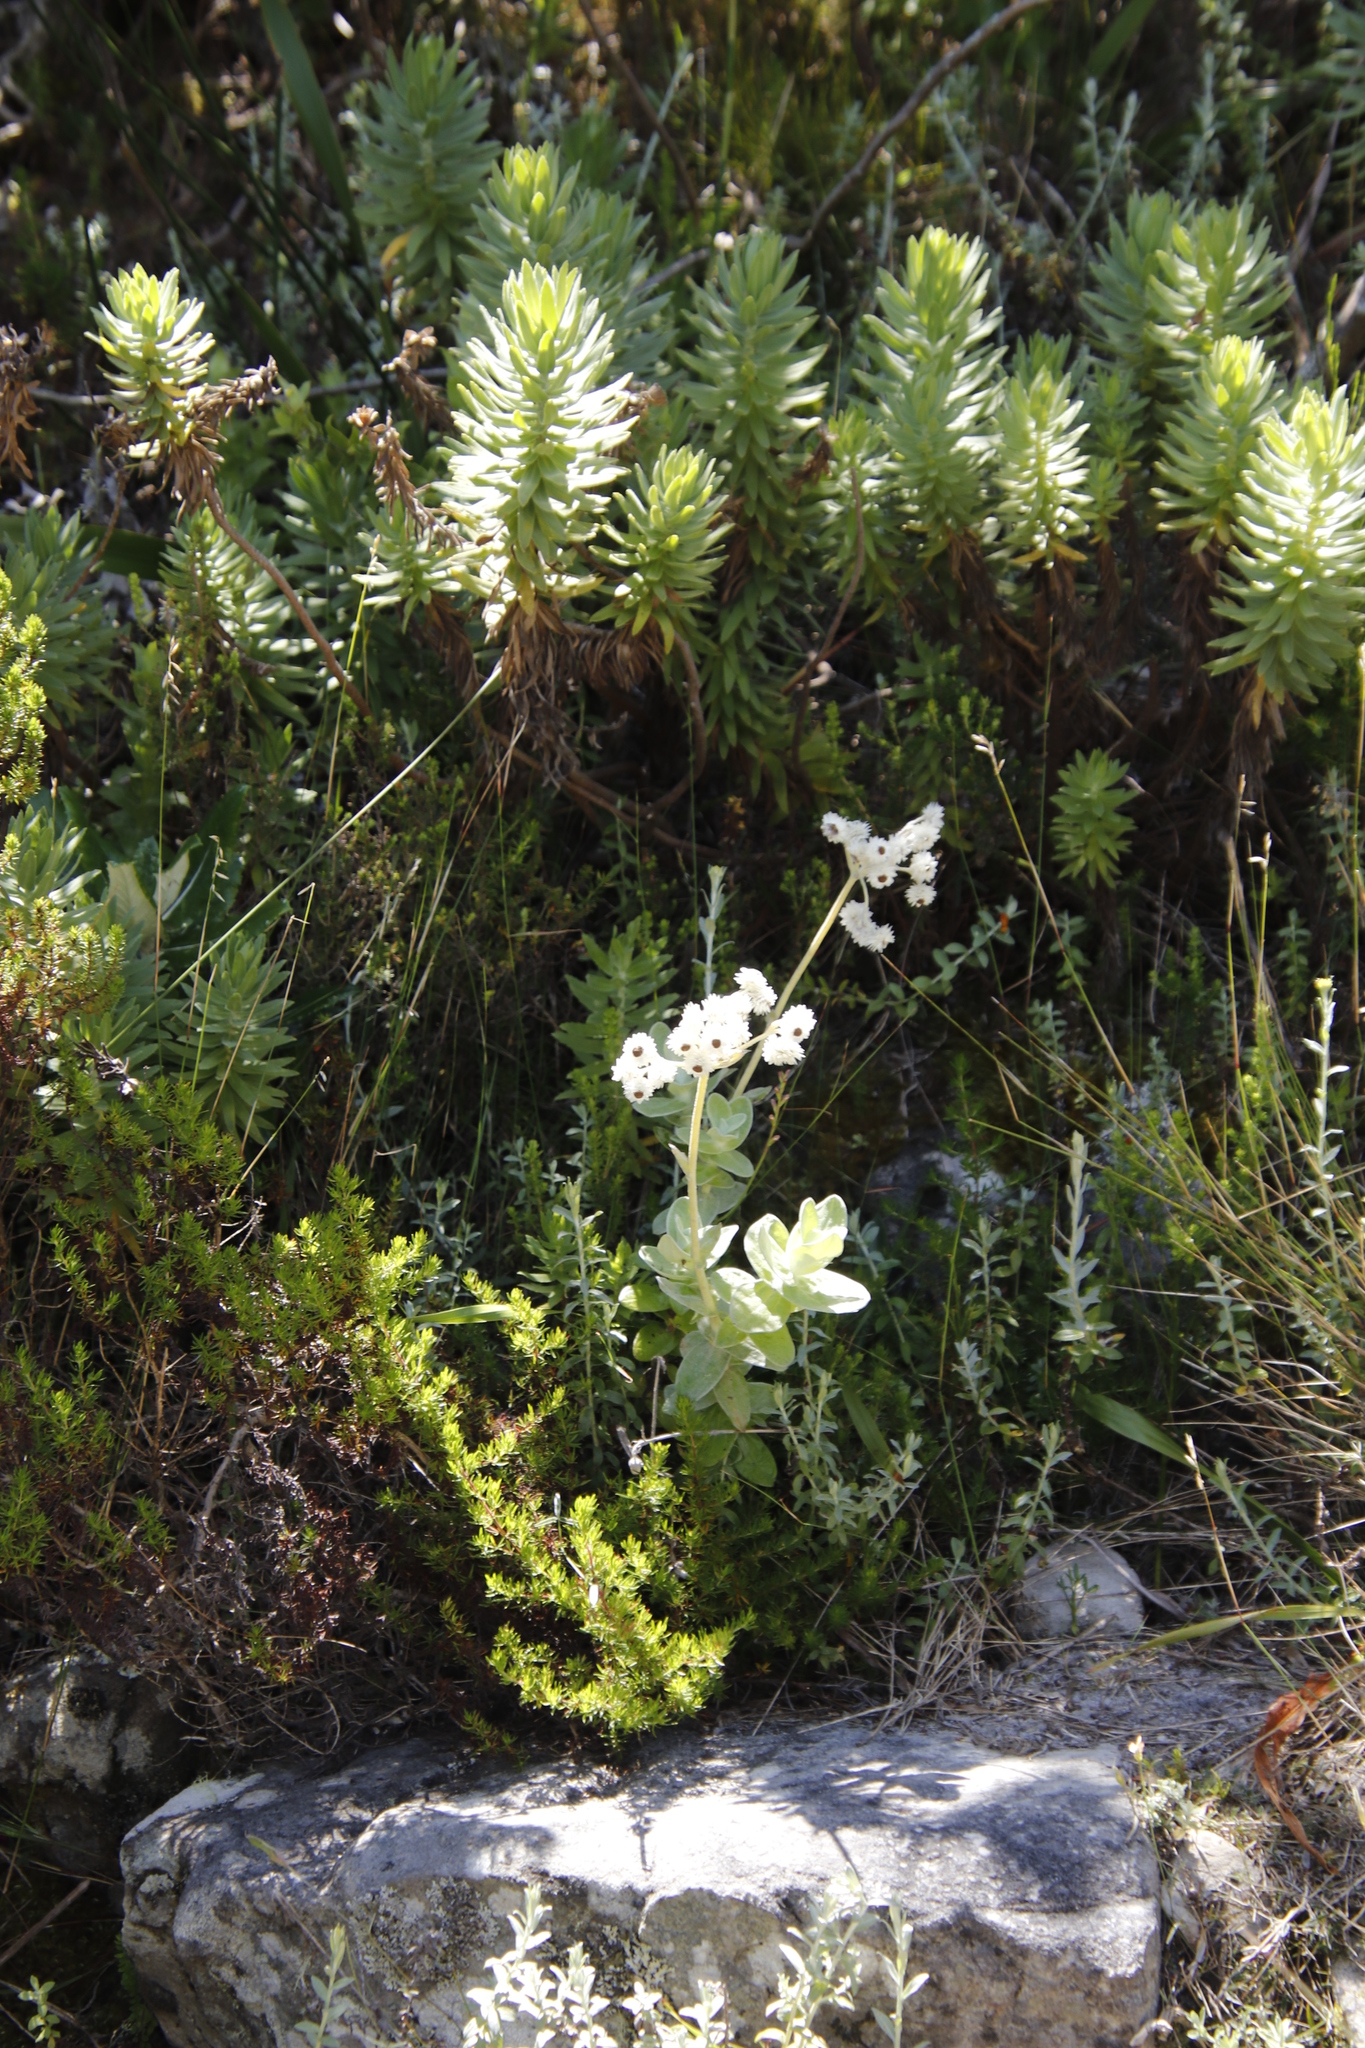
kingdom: Plantae
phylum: Tracheophyta
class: Magnoliopsida
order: Asterales
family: Asteraceae
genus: Helichrysum
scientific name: Helichrysum fruticans
